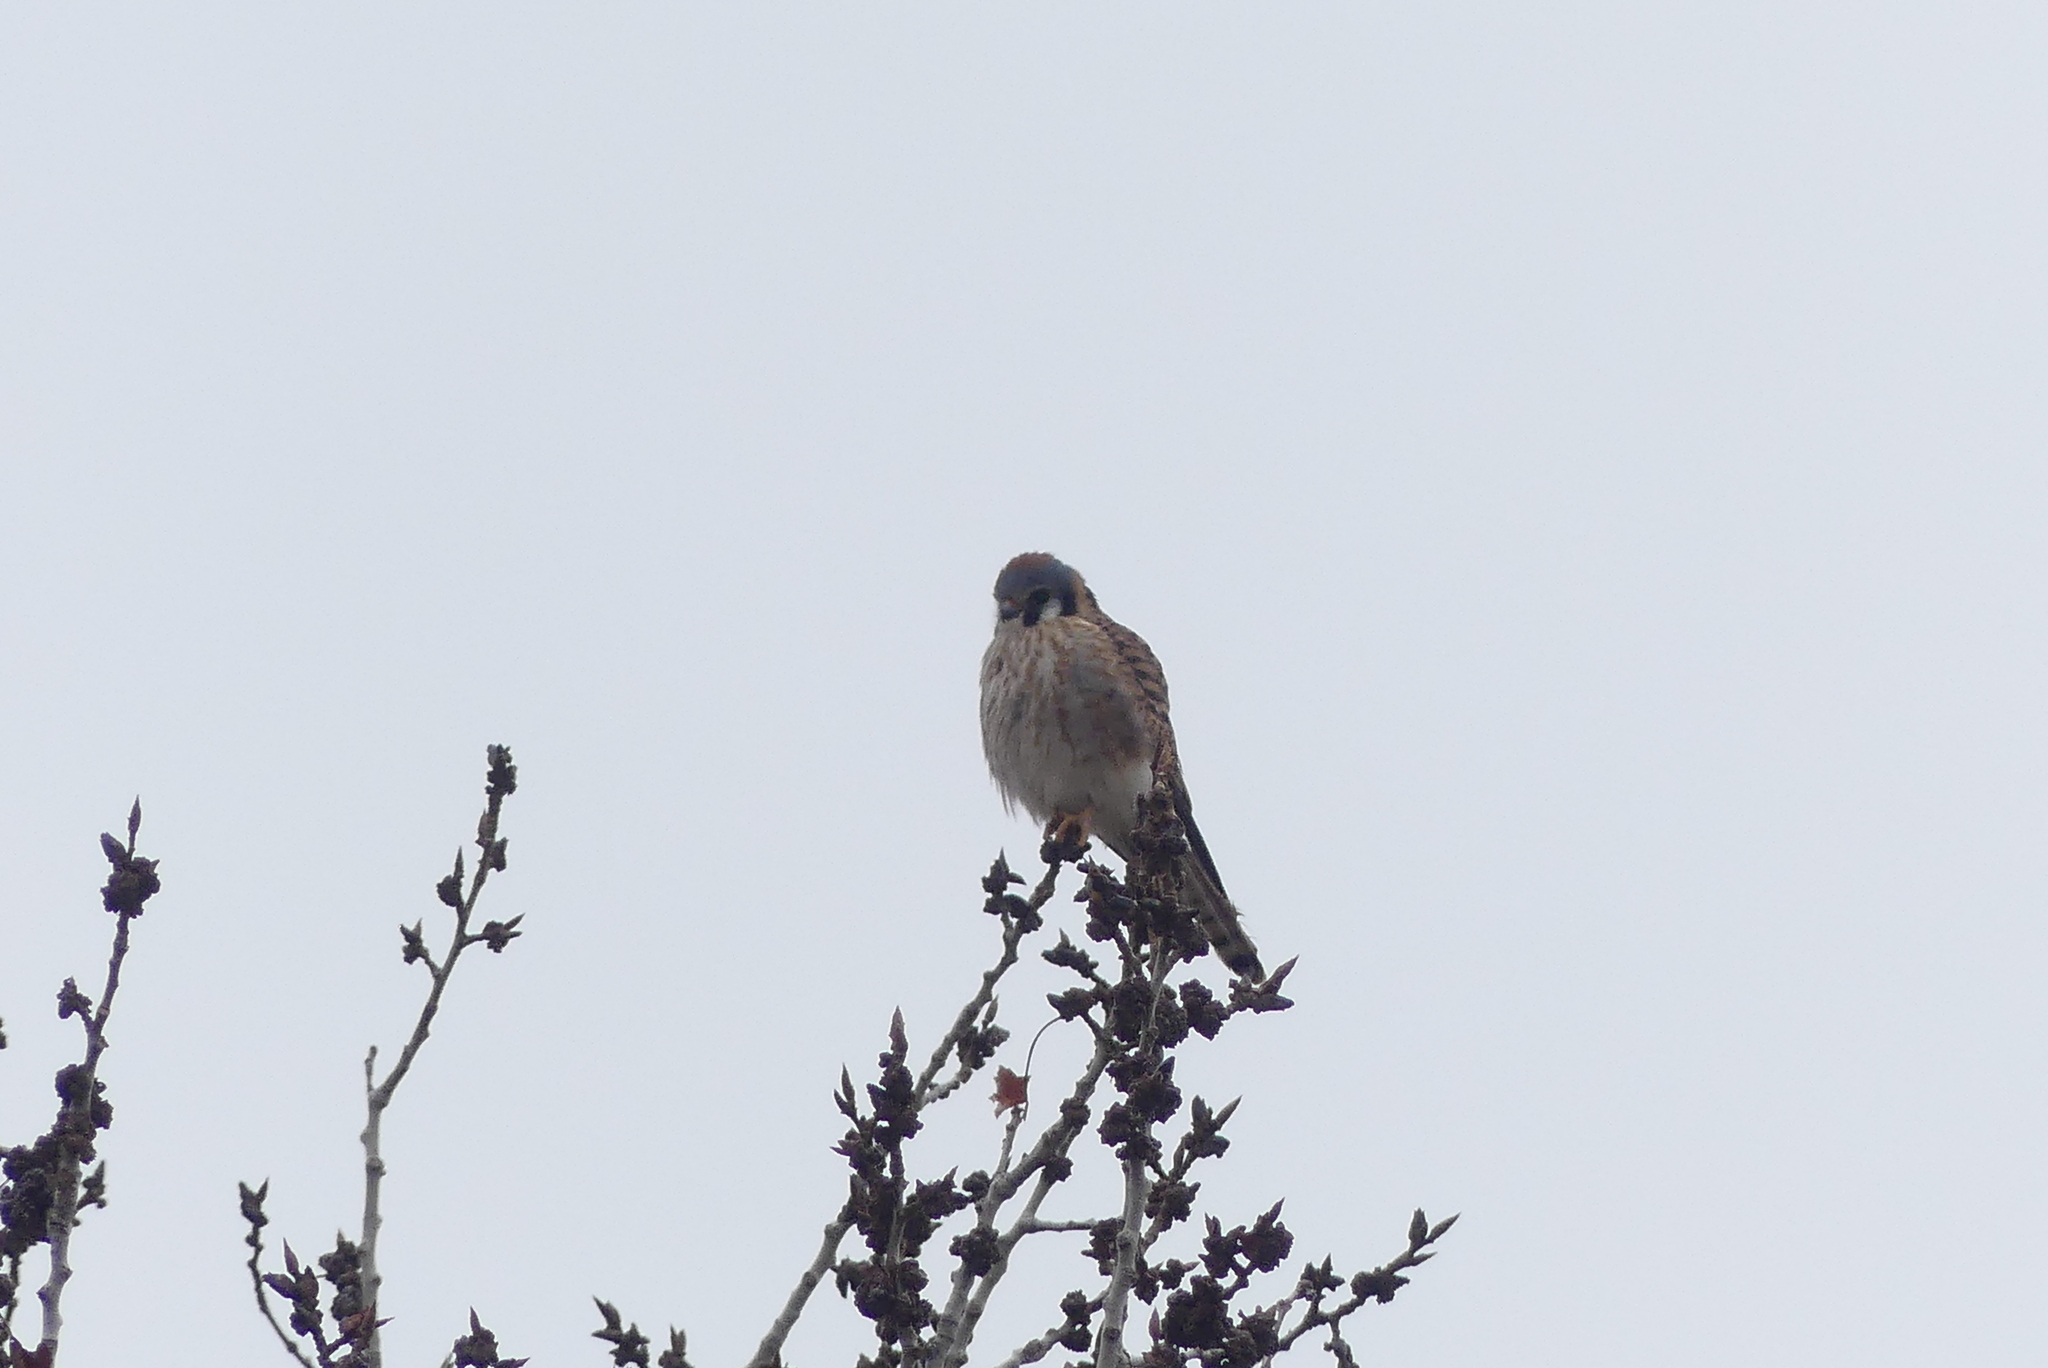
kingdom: Animalia
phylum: Chordata
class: Aves
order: Falconiformes
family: Falconidae
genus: Falco
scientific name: Falco sparverius
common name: American kestrel
